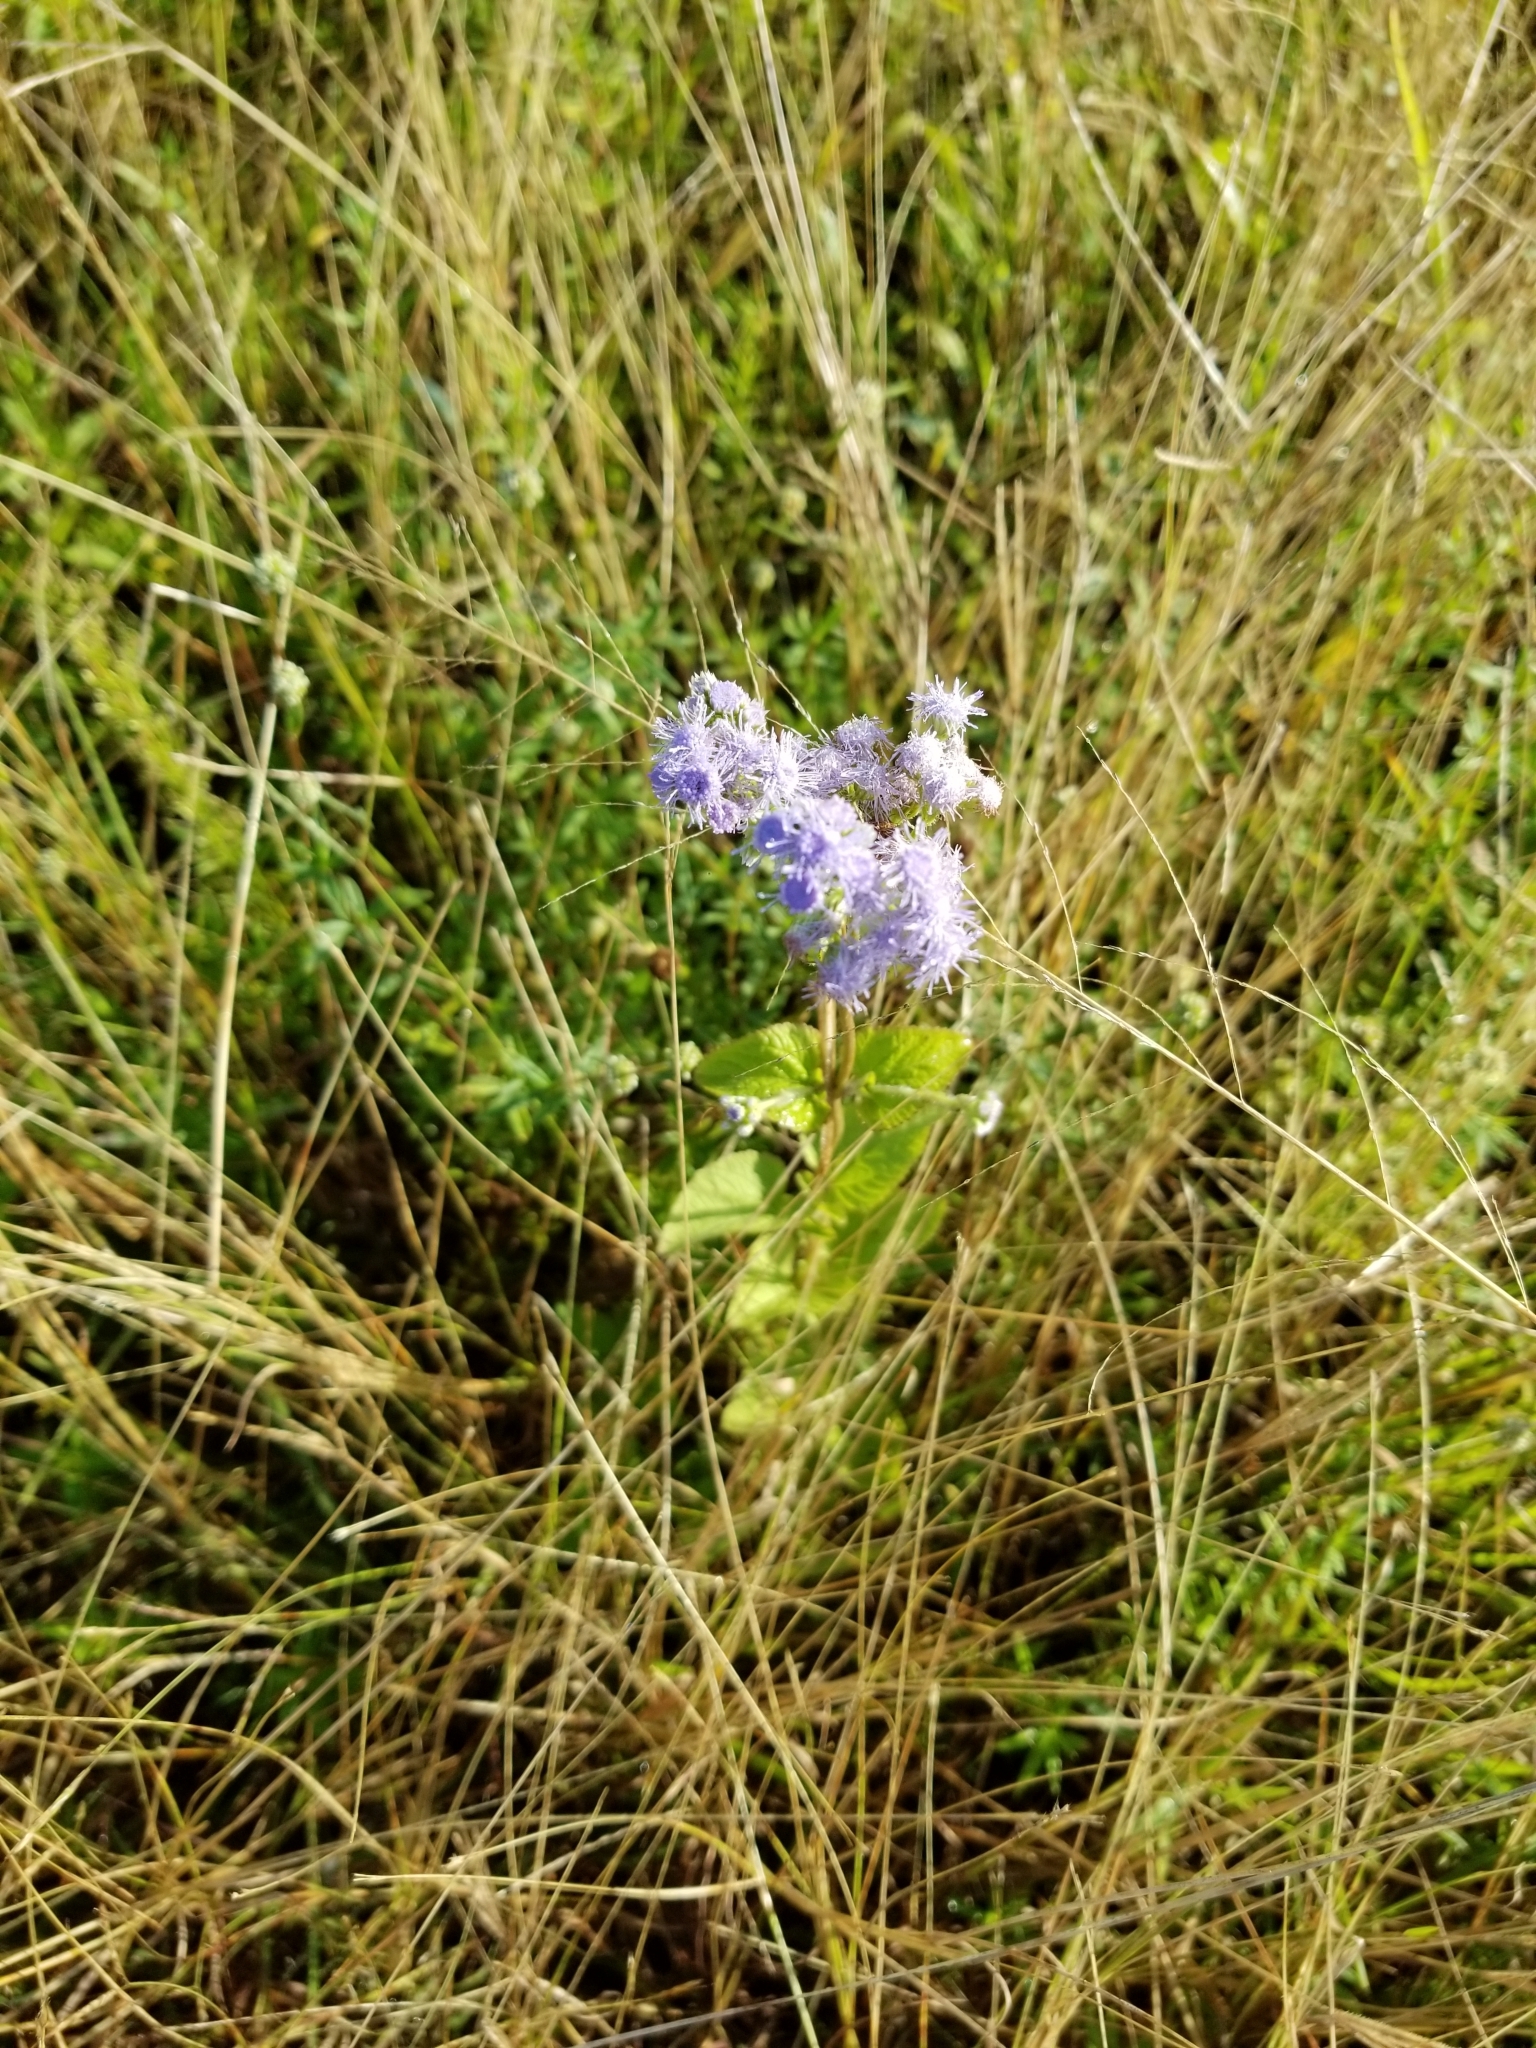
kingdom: Plantae
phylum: Tracheophyta
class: Magnoliopsida
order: Asterales
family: Asteraceae
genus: Conoclinium
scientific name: Conoclinium coelestinum
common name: Blue mistflower
